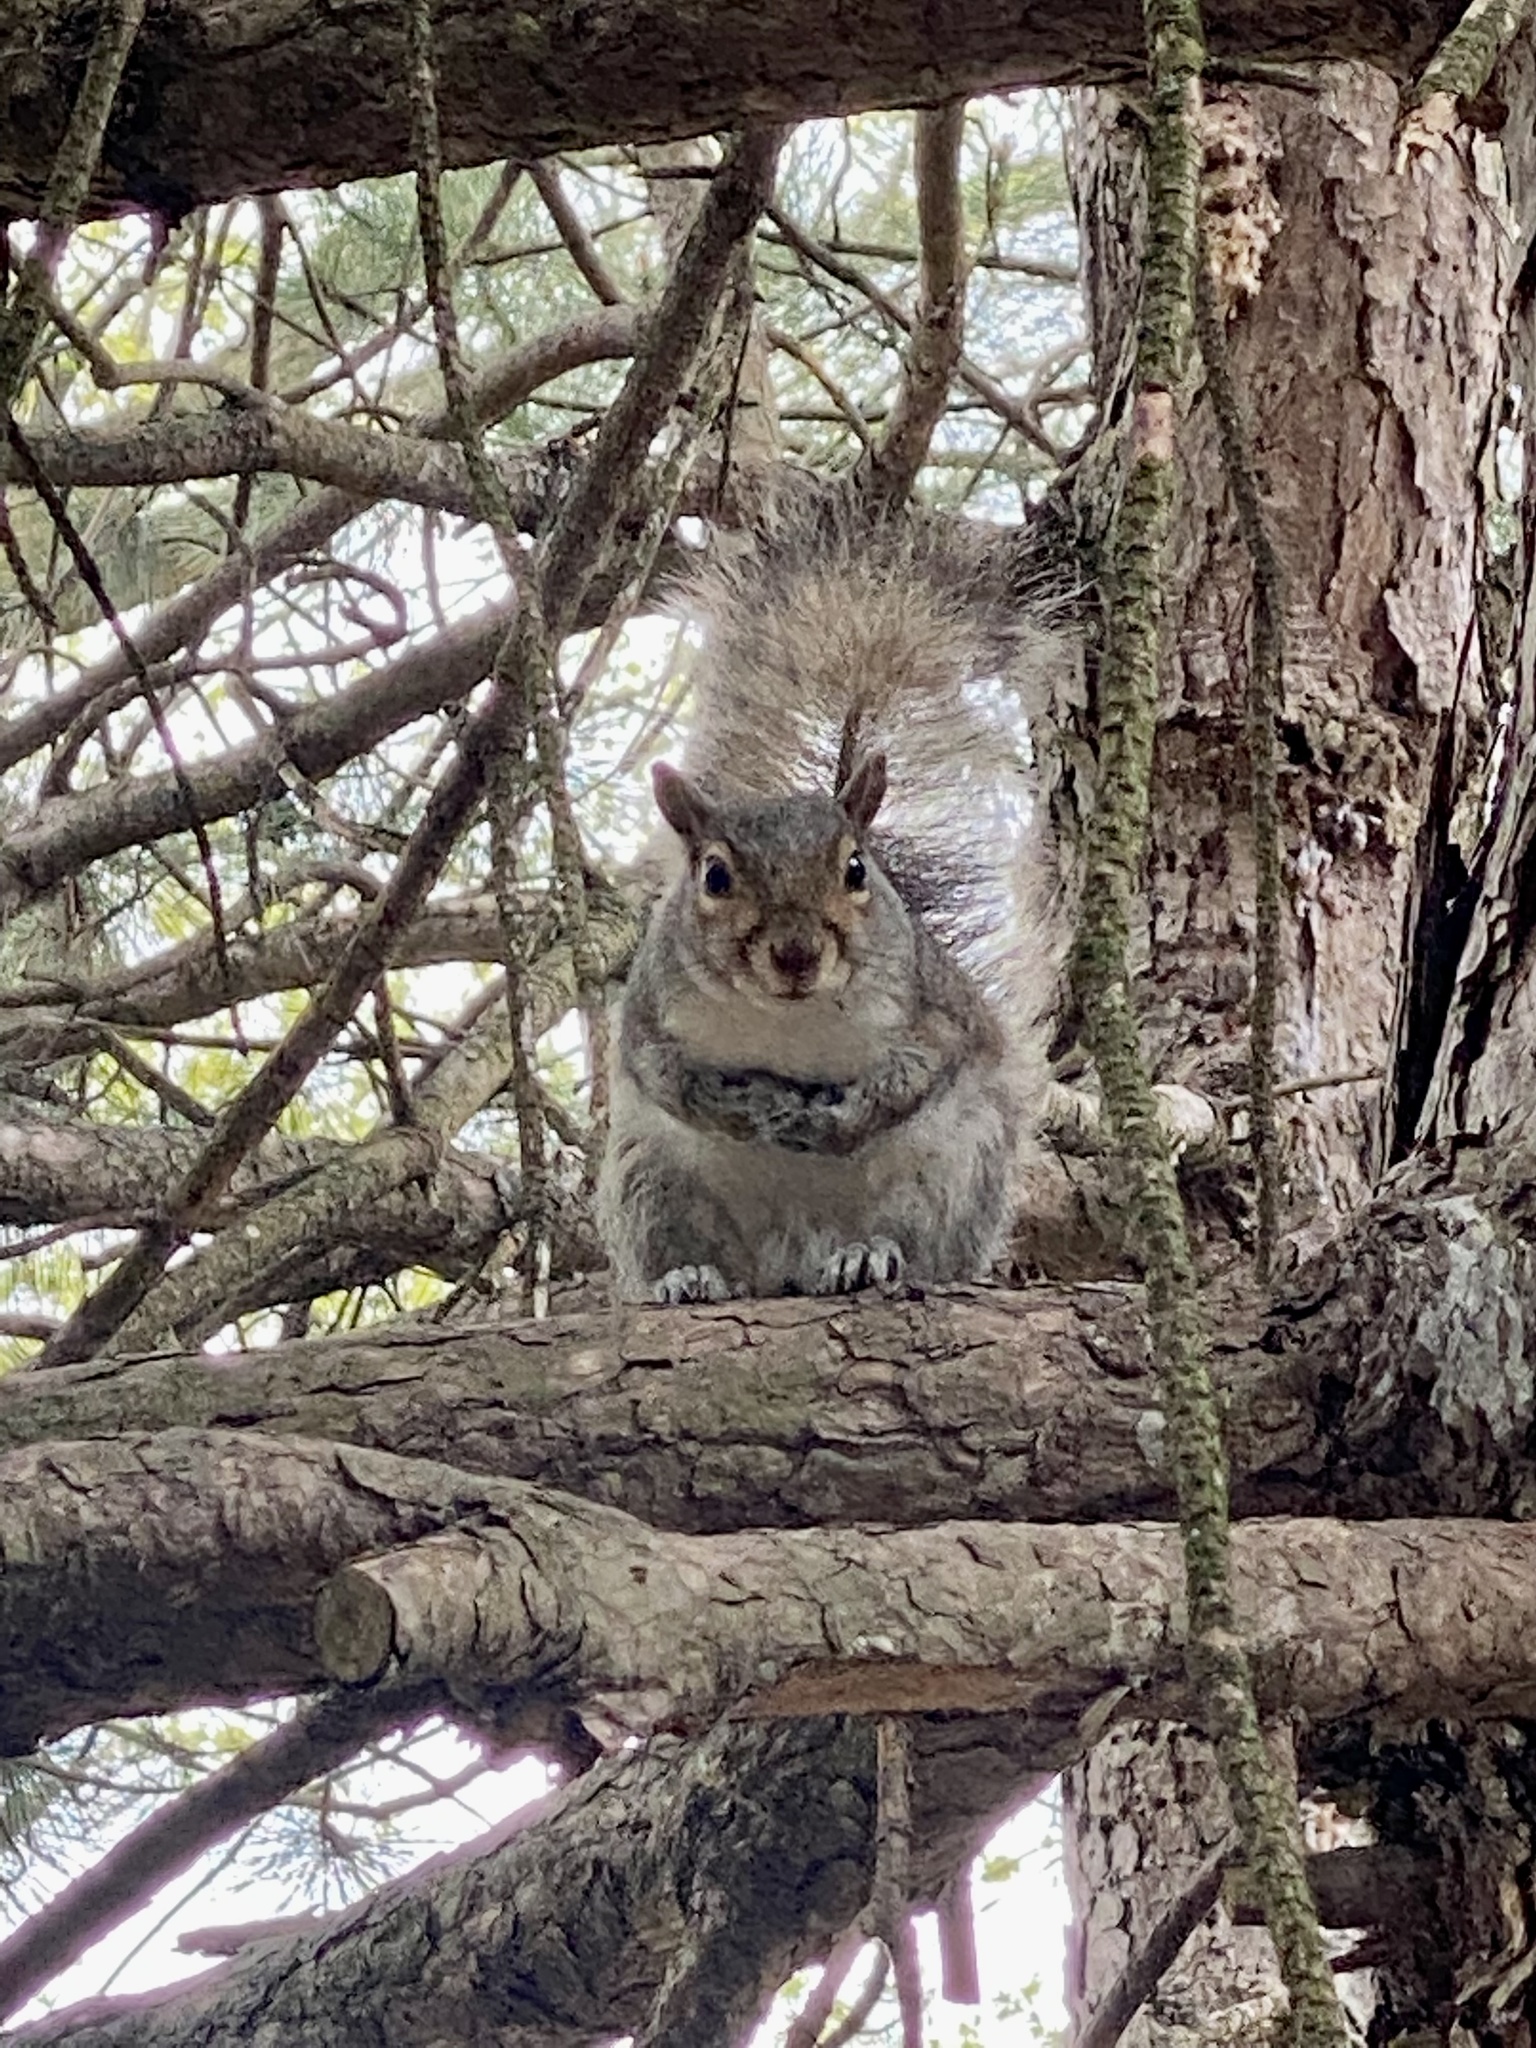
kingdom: Animalia
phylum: Chordata
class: Mammalia
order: Rodentia
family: Sciuridae
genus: Sciurus
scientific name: Sciurus carolinensis
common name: Eastern gray squirrel
